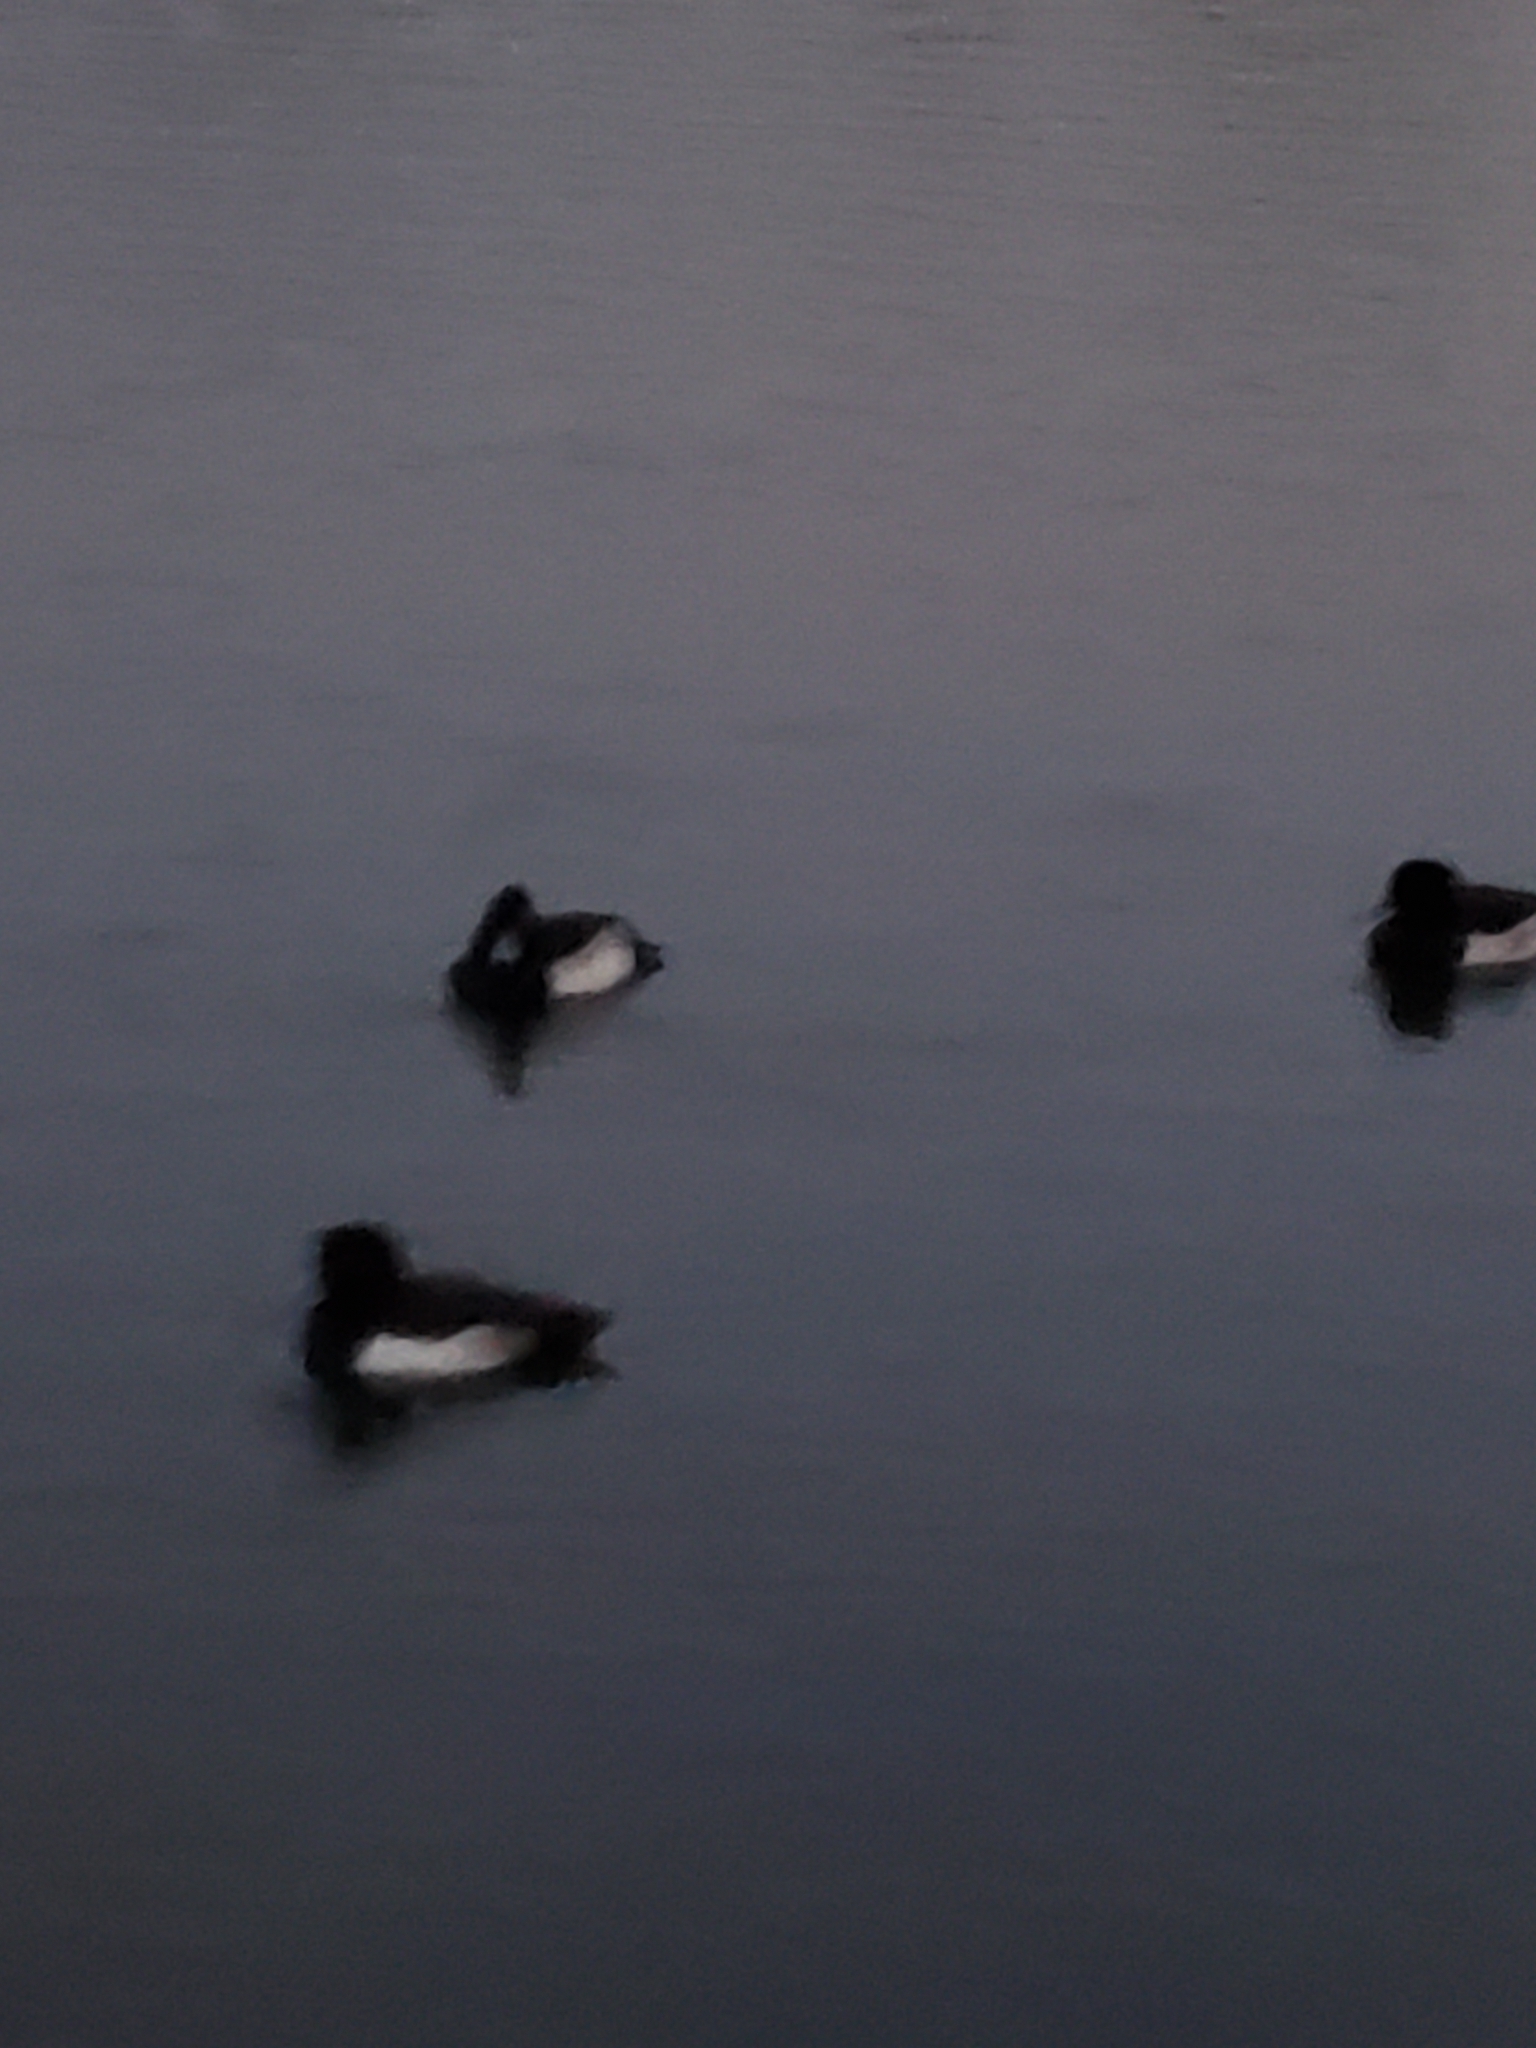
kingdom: Animalia
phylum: Chordata
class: Aves
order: Anseriformes
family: Anatidae
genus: Aythya
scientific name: Aythya fuligula
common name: Tufted duck
